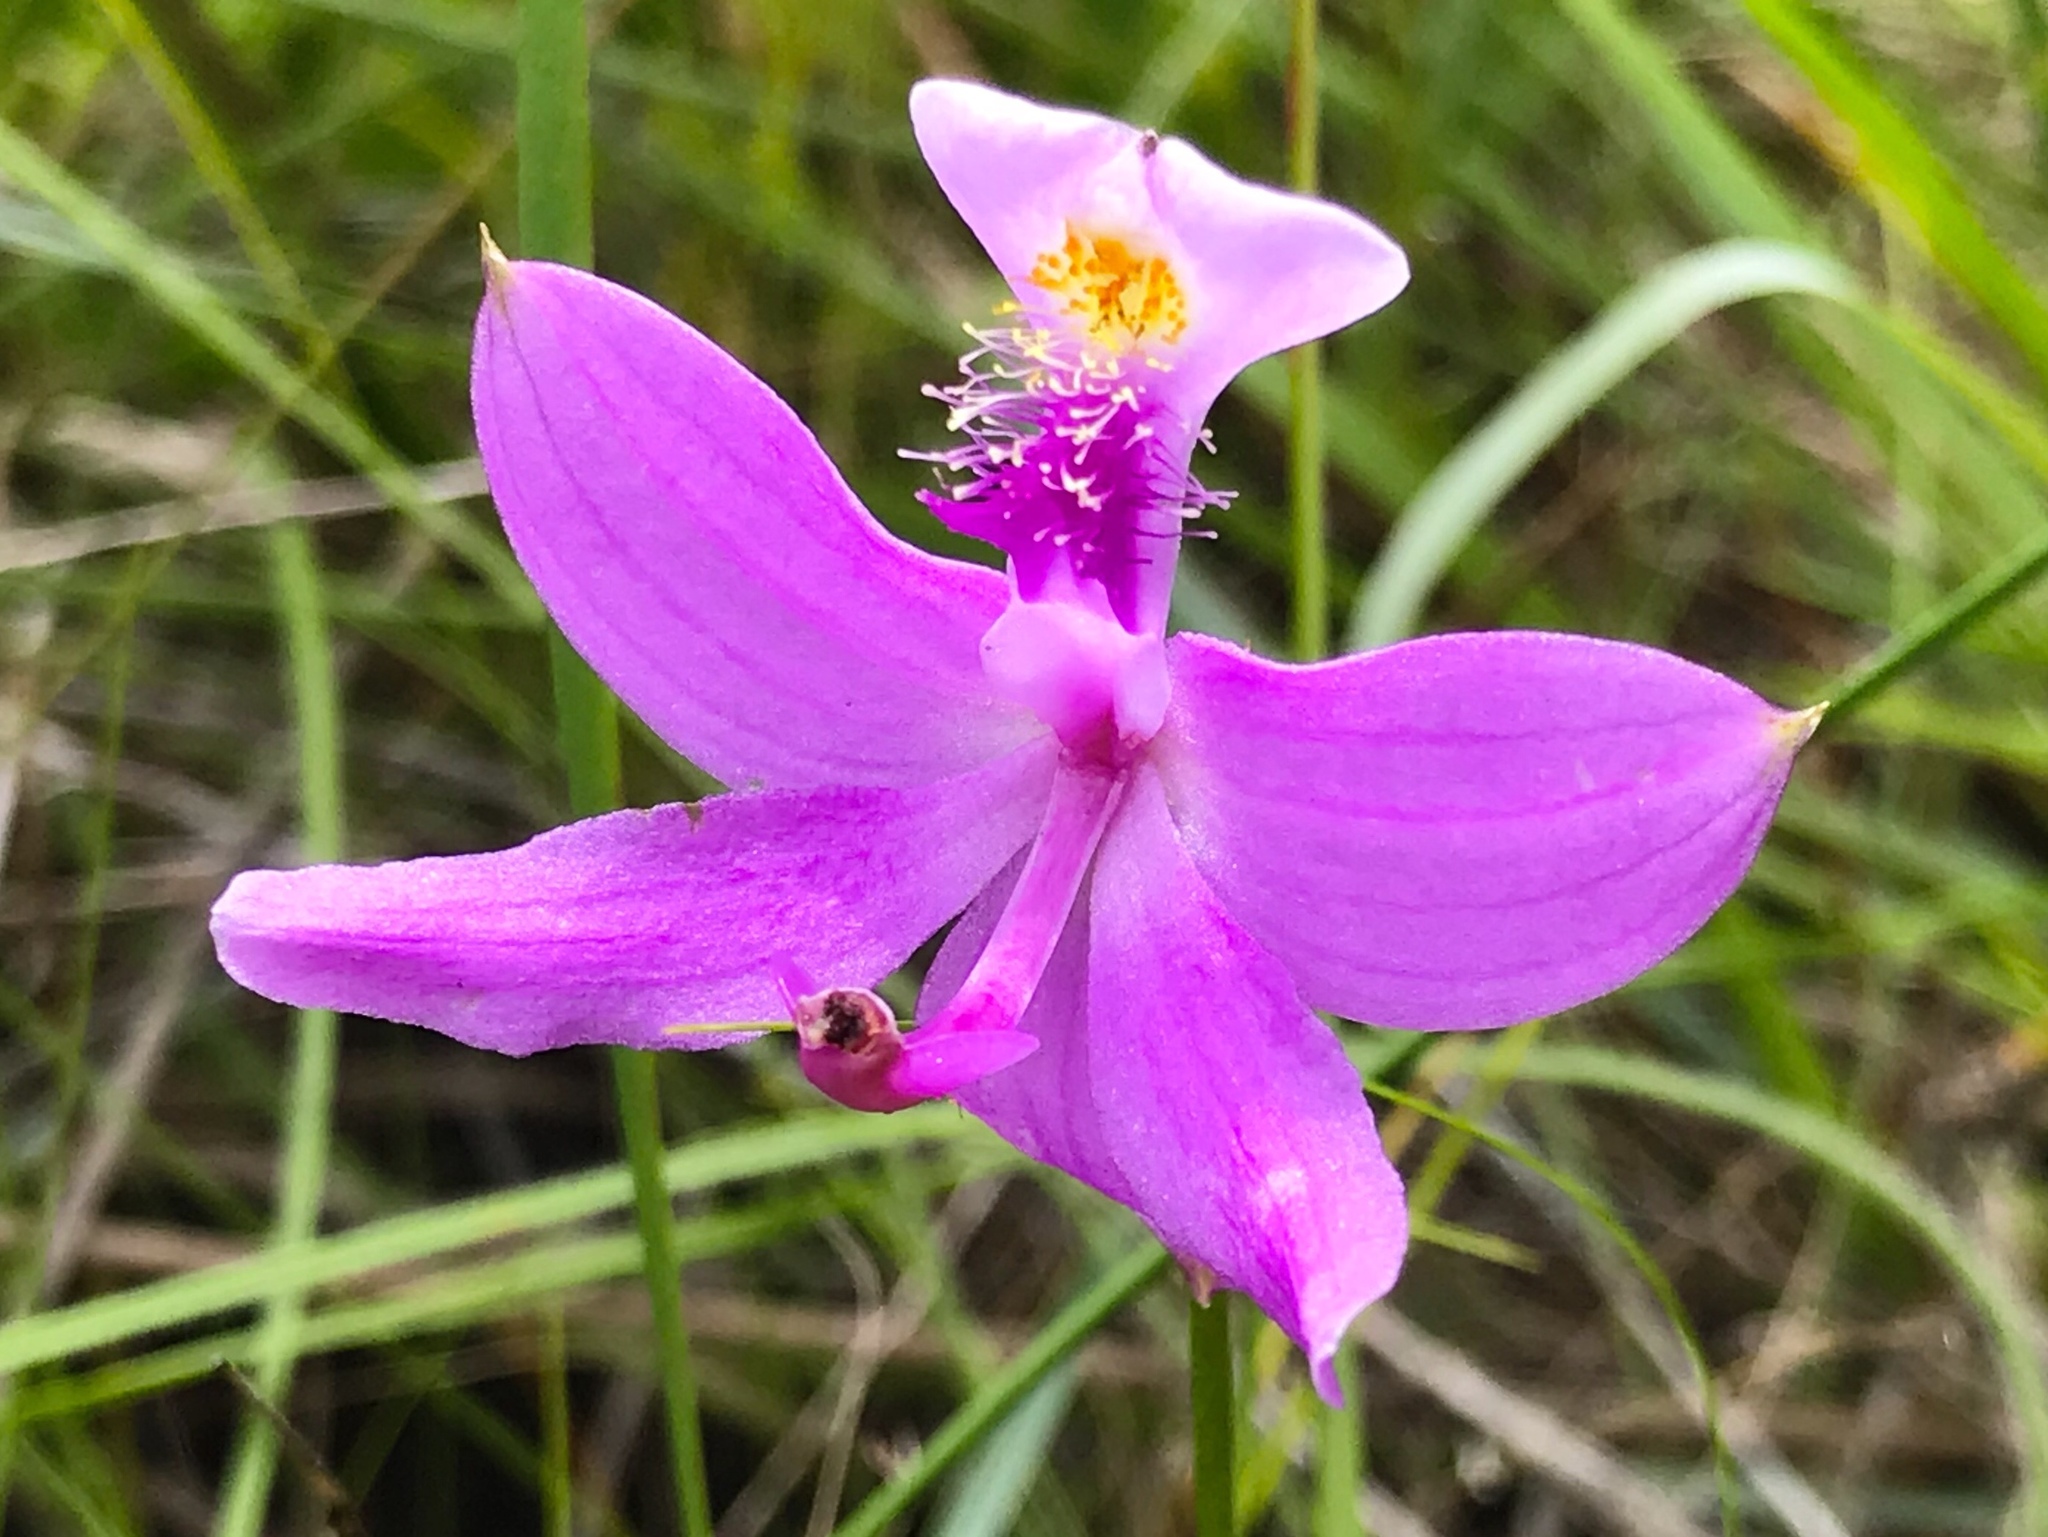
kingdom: Plantae
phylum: Tracheophyta
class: Liliopsida
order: Asparagales
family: Orchidaceae
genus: Calopogon
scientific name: Calopogon tuberosus
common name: Grass-pink
